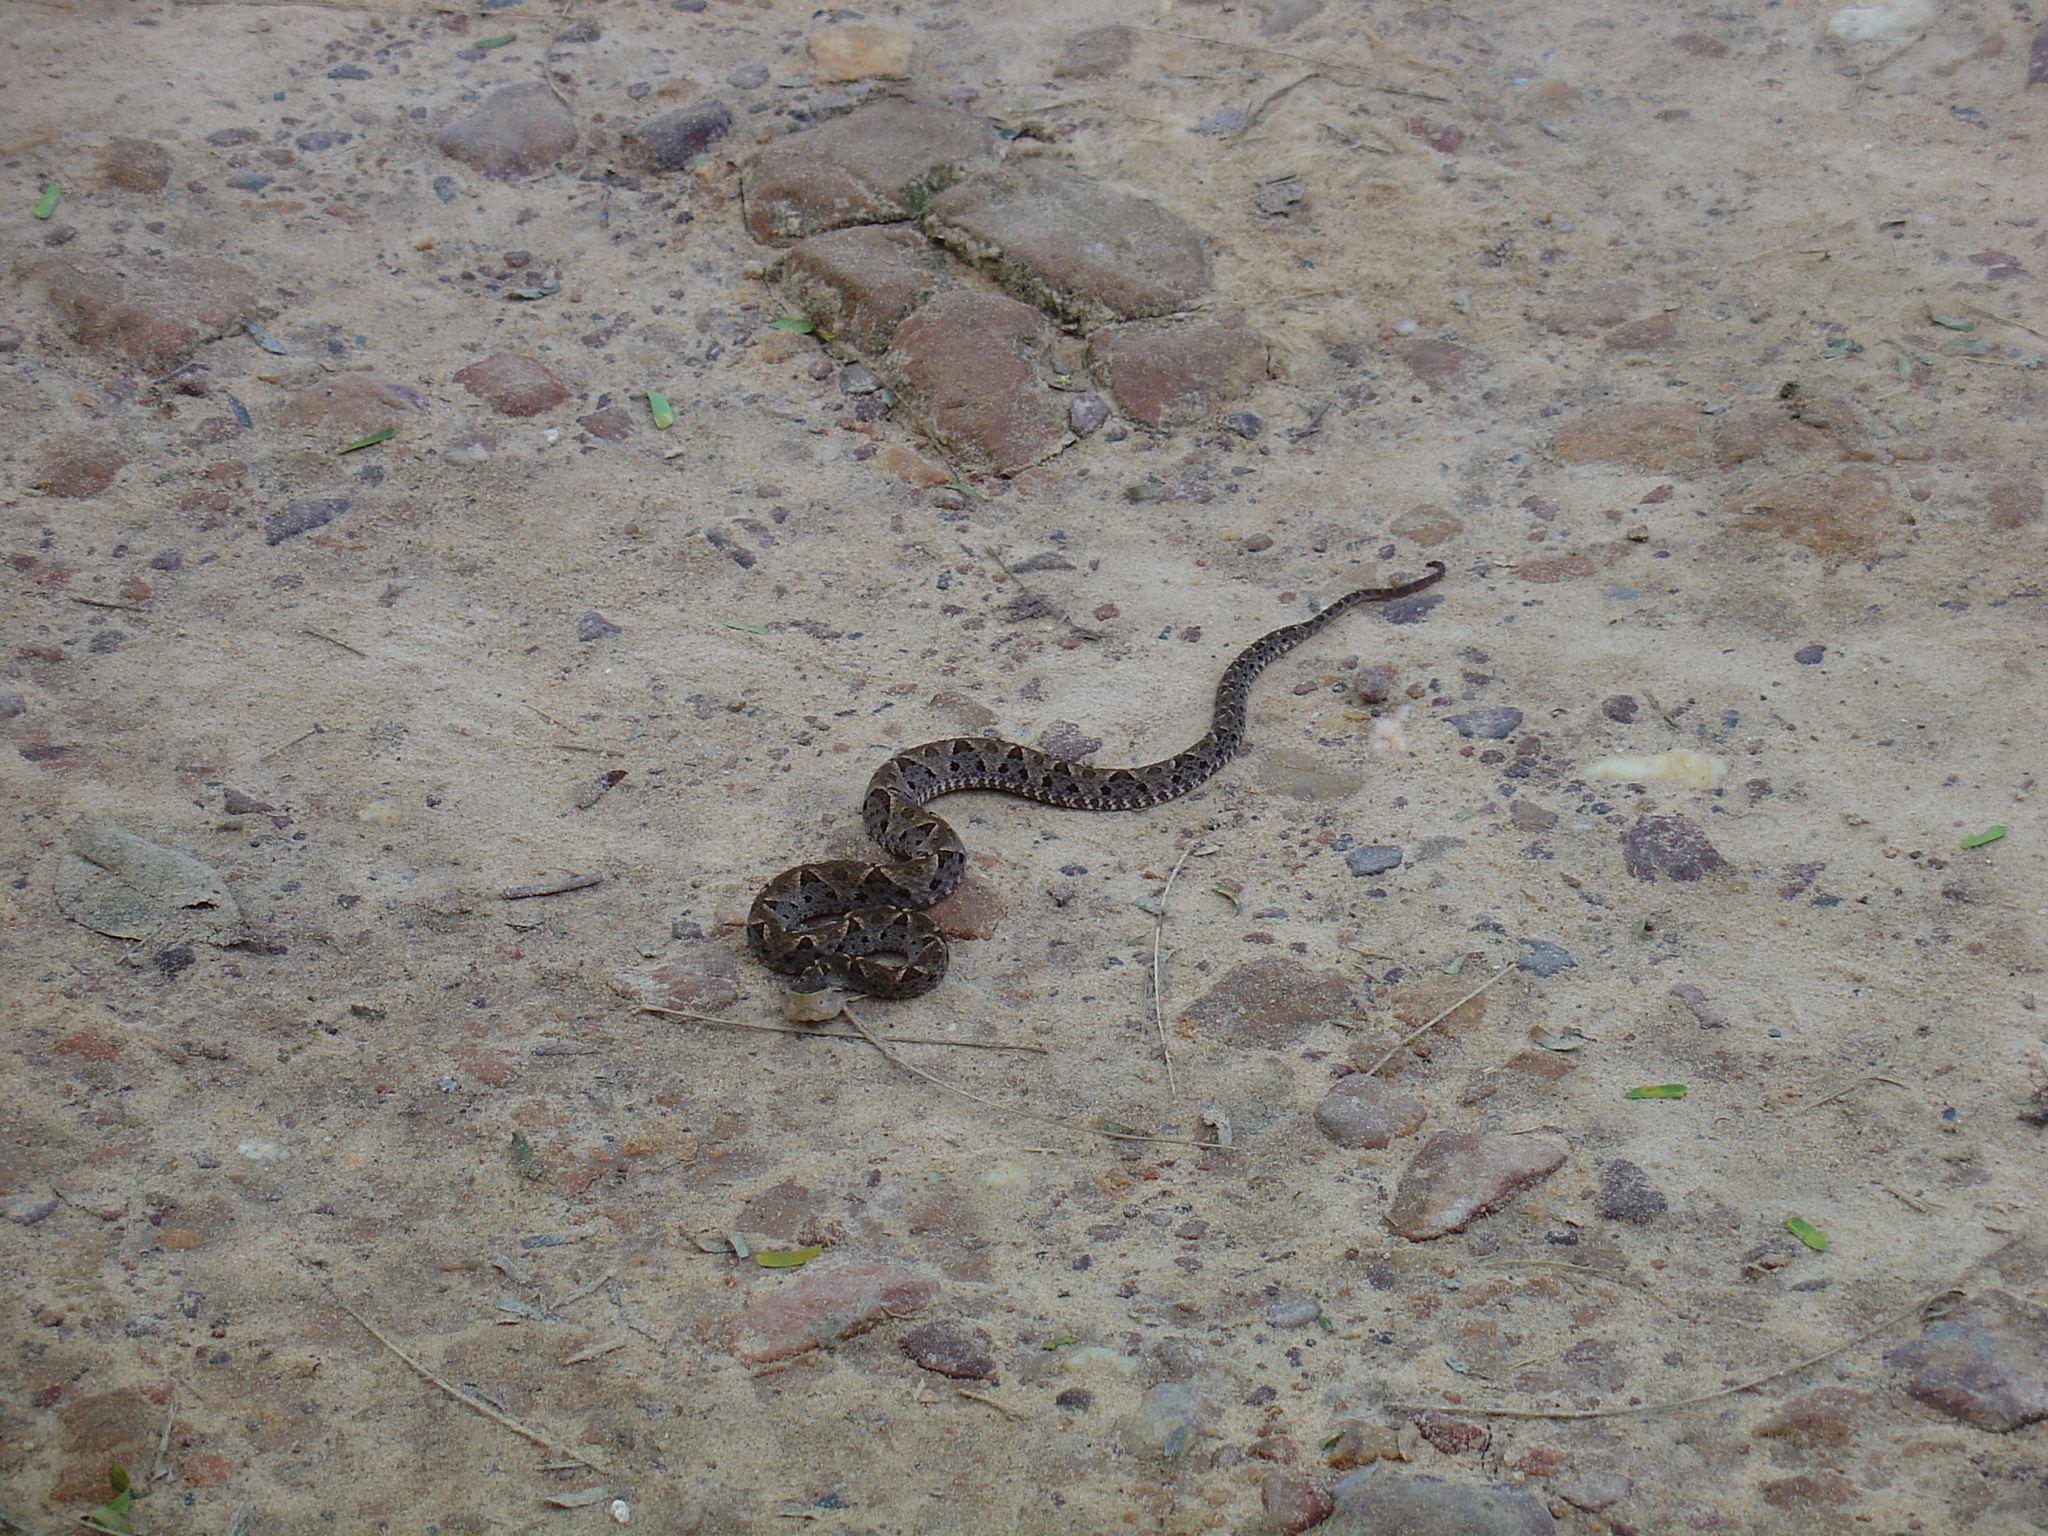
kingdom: Animalia
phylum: Chordata
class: Squamata
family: Viperidae
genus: Bothrops
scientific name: Bothrops asper
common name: Terciopelo
